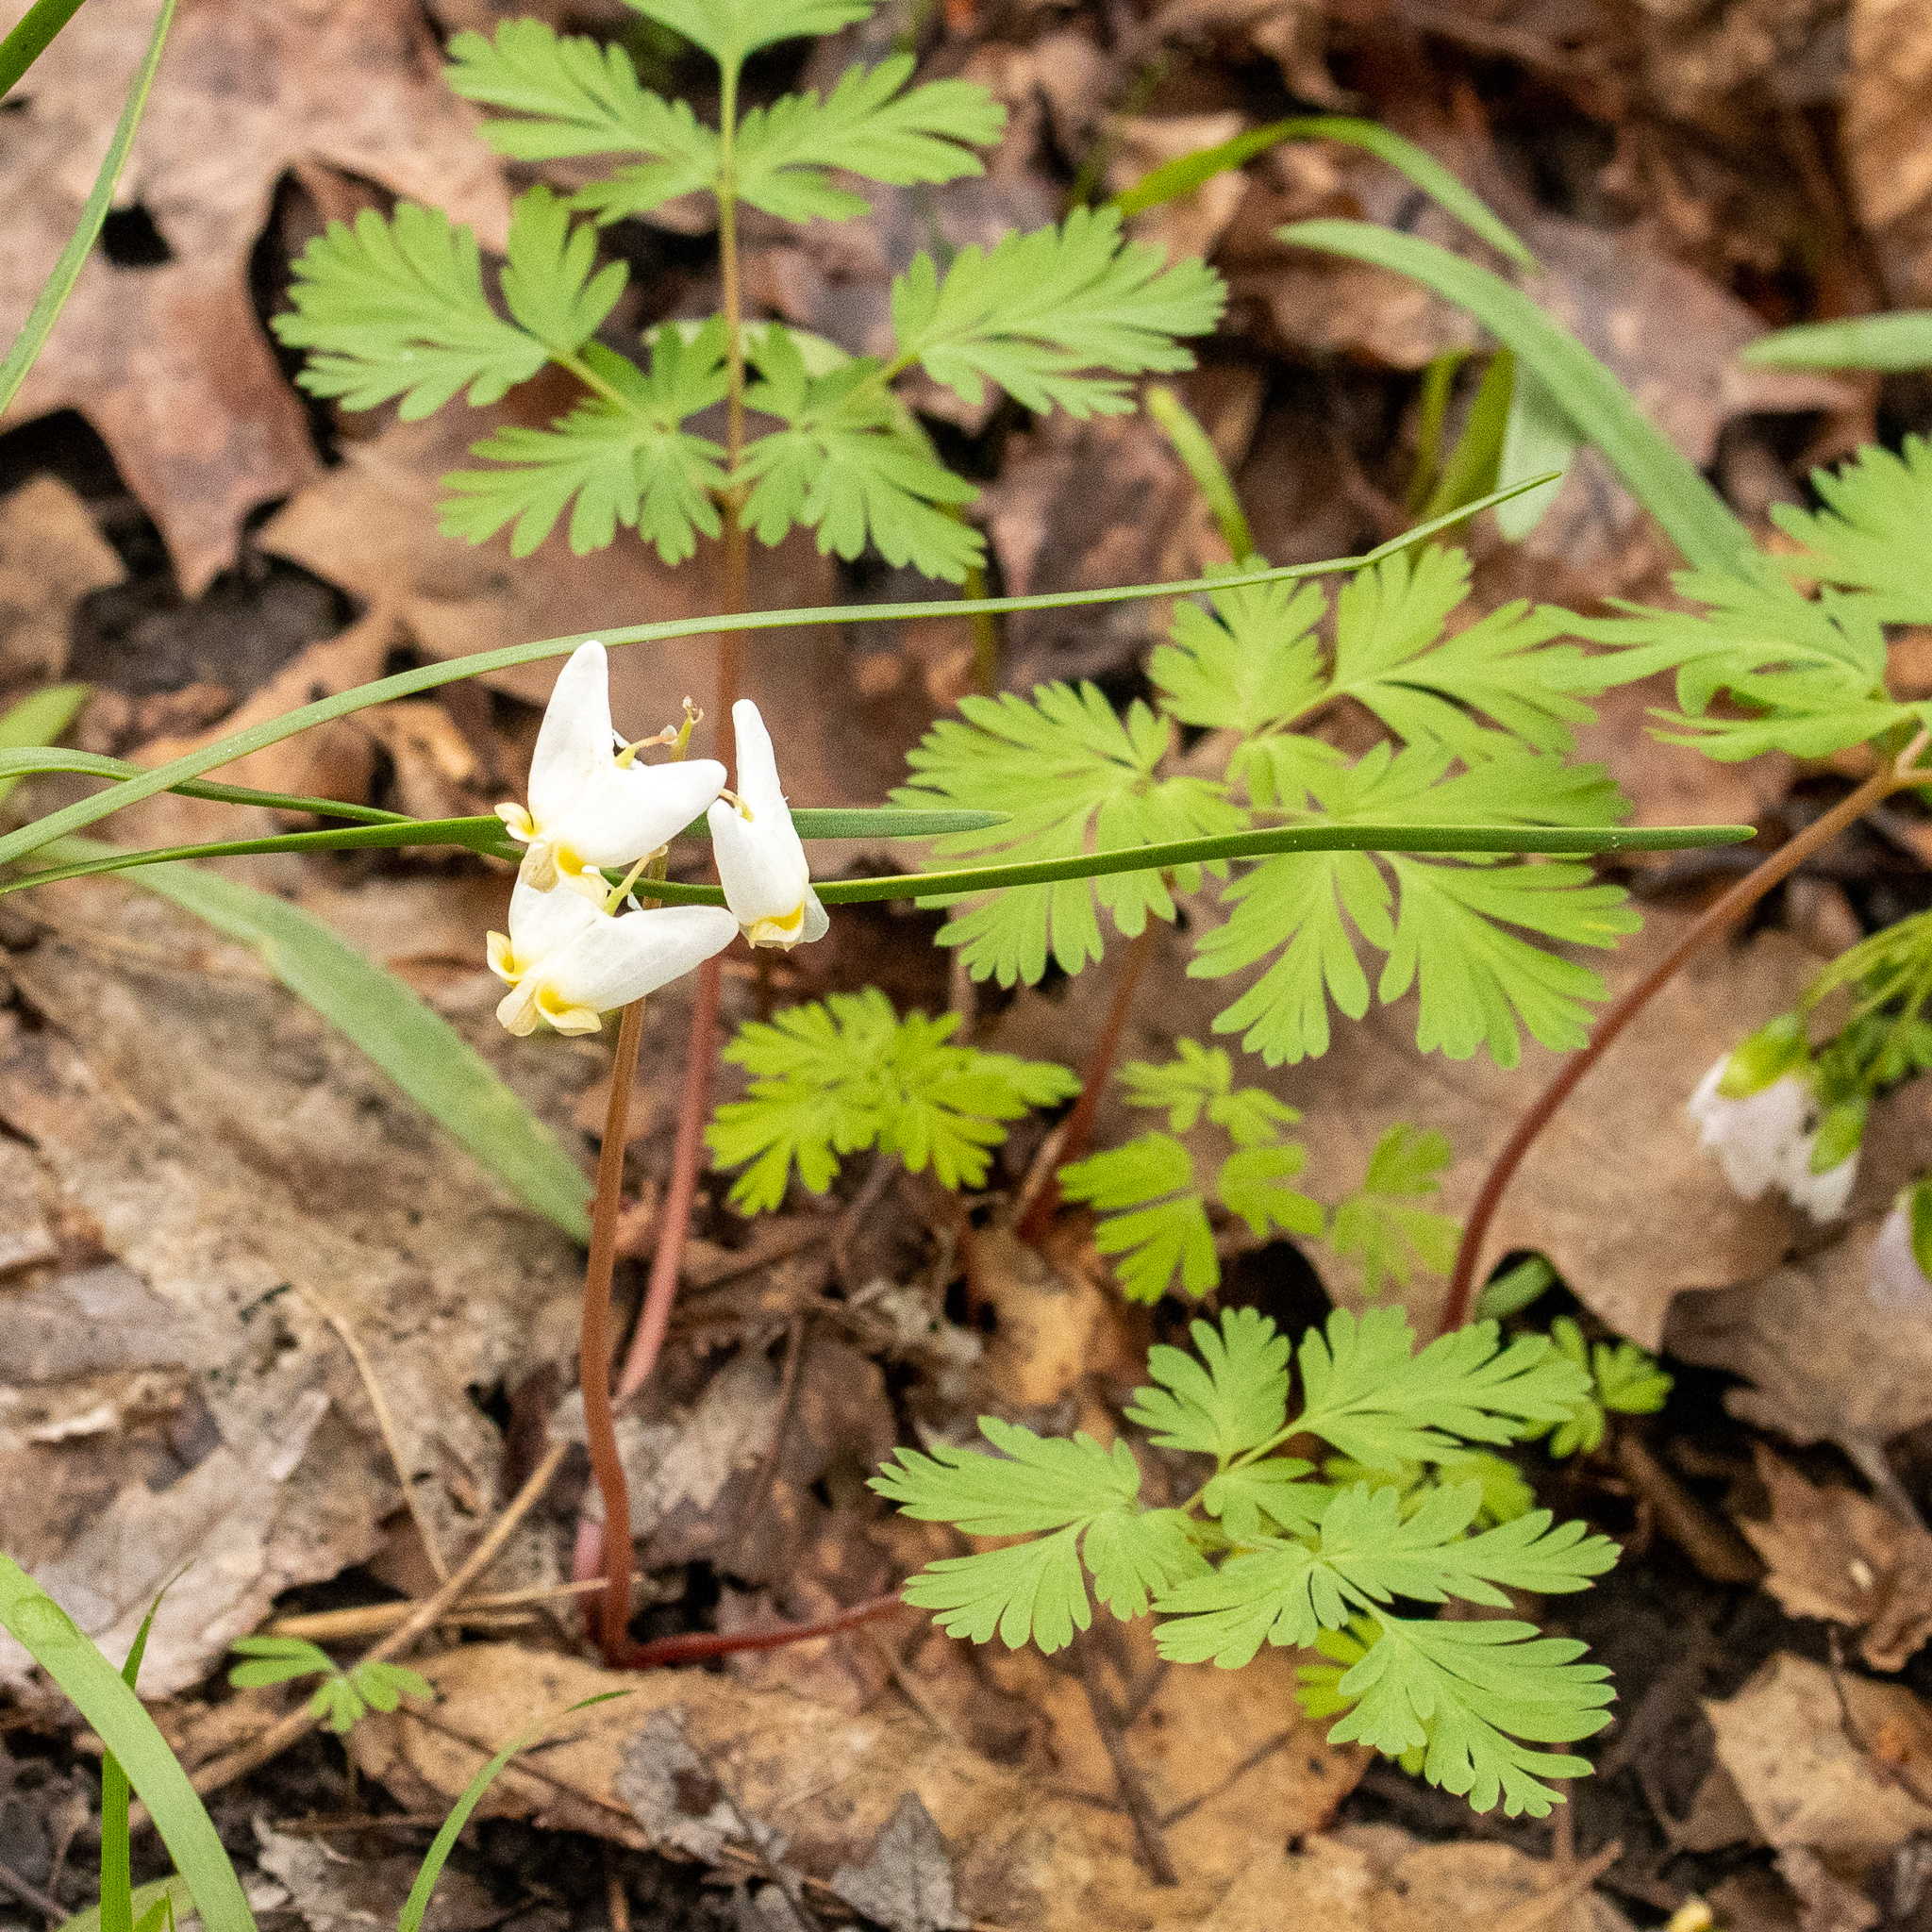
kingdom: Plantae
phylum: Tracheophyta
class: Magnoliopsida
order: Ranunculales
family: Papaveraceae
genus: Dicentra
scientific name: Dicentra cucullaria
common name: Dutchman's breeches
